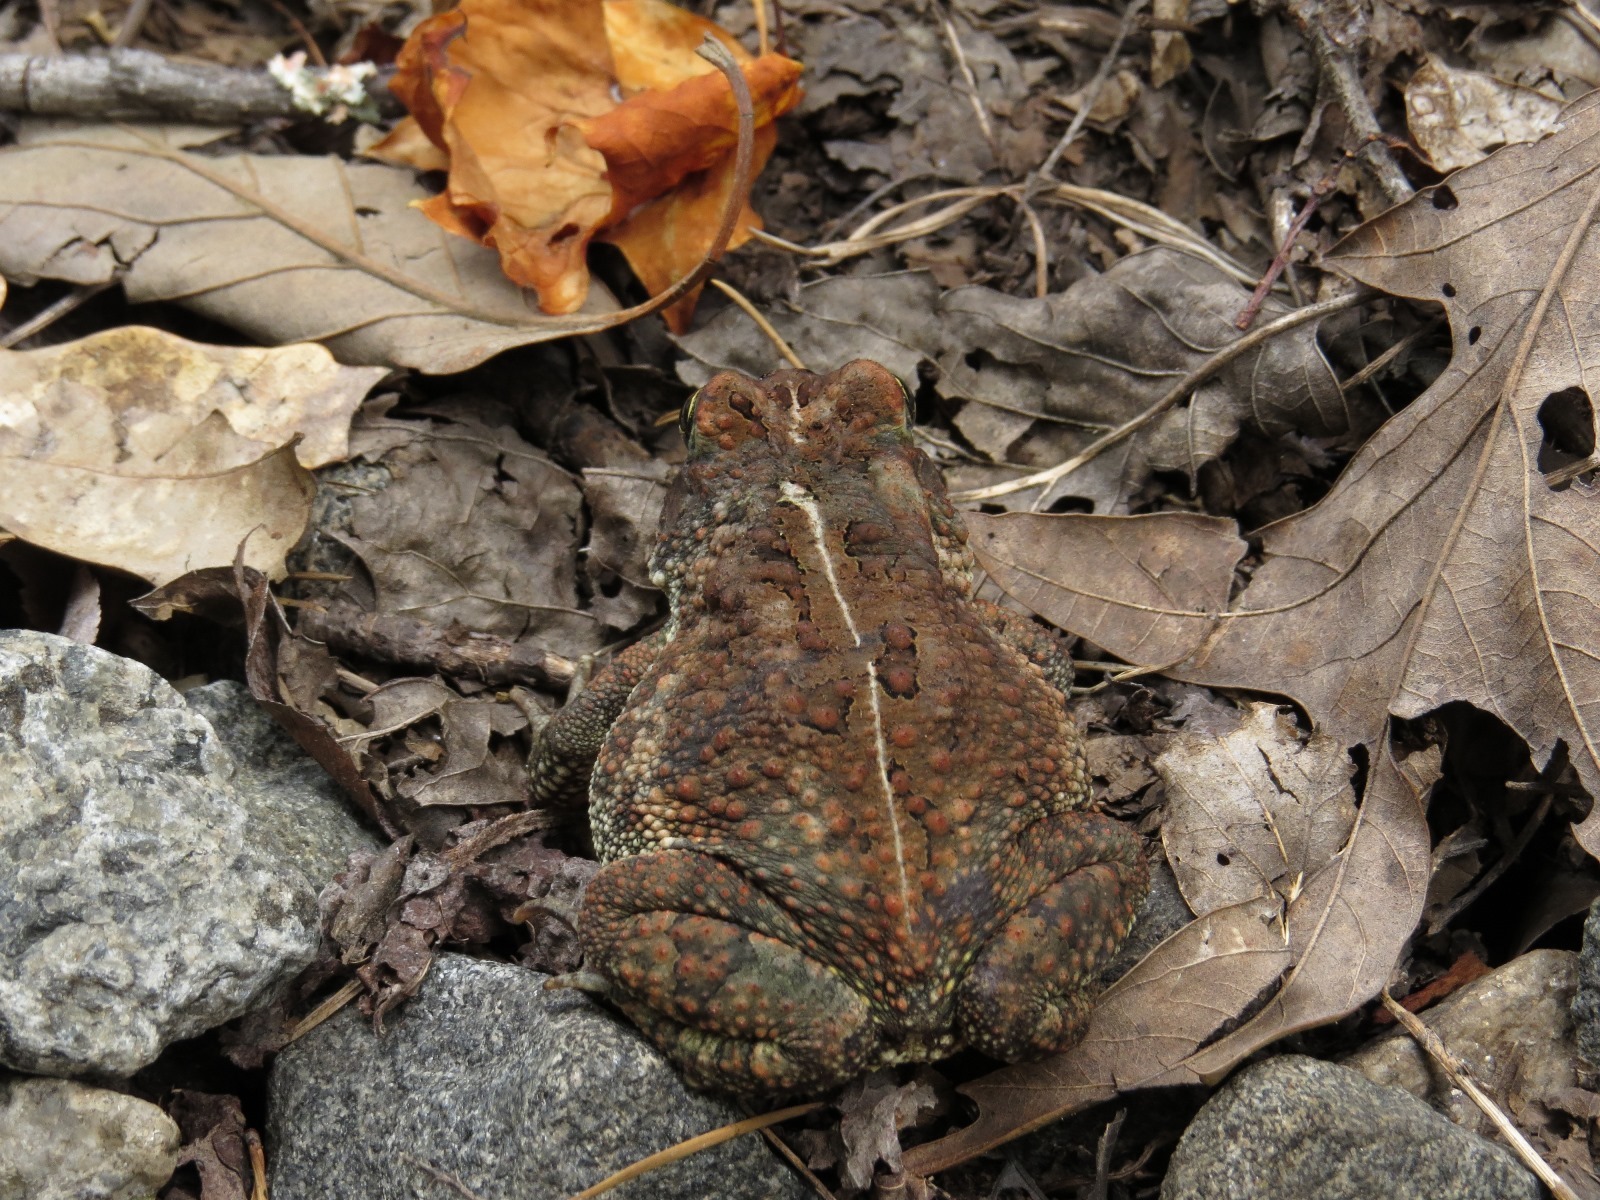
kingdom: Animalia
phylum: Chordata
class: Amphibia
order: Anura
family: Bufonidae
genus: Anaxyrus
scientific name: Anaxyrus americanus
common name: American toad
